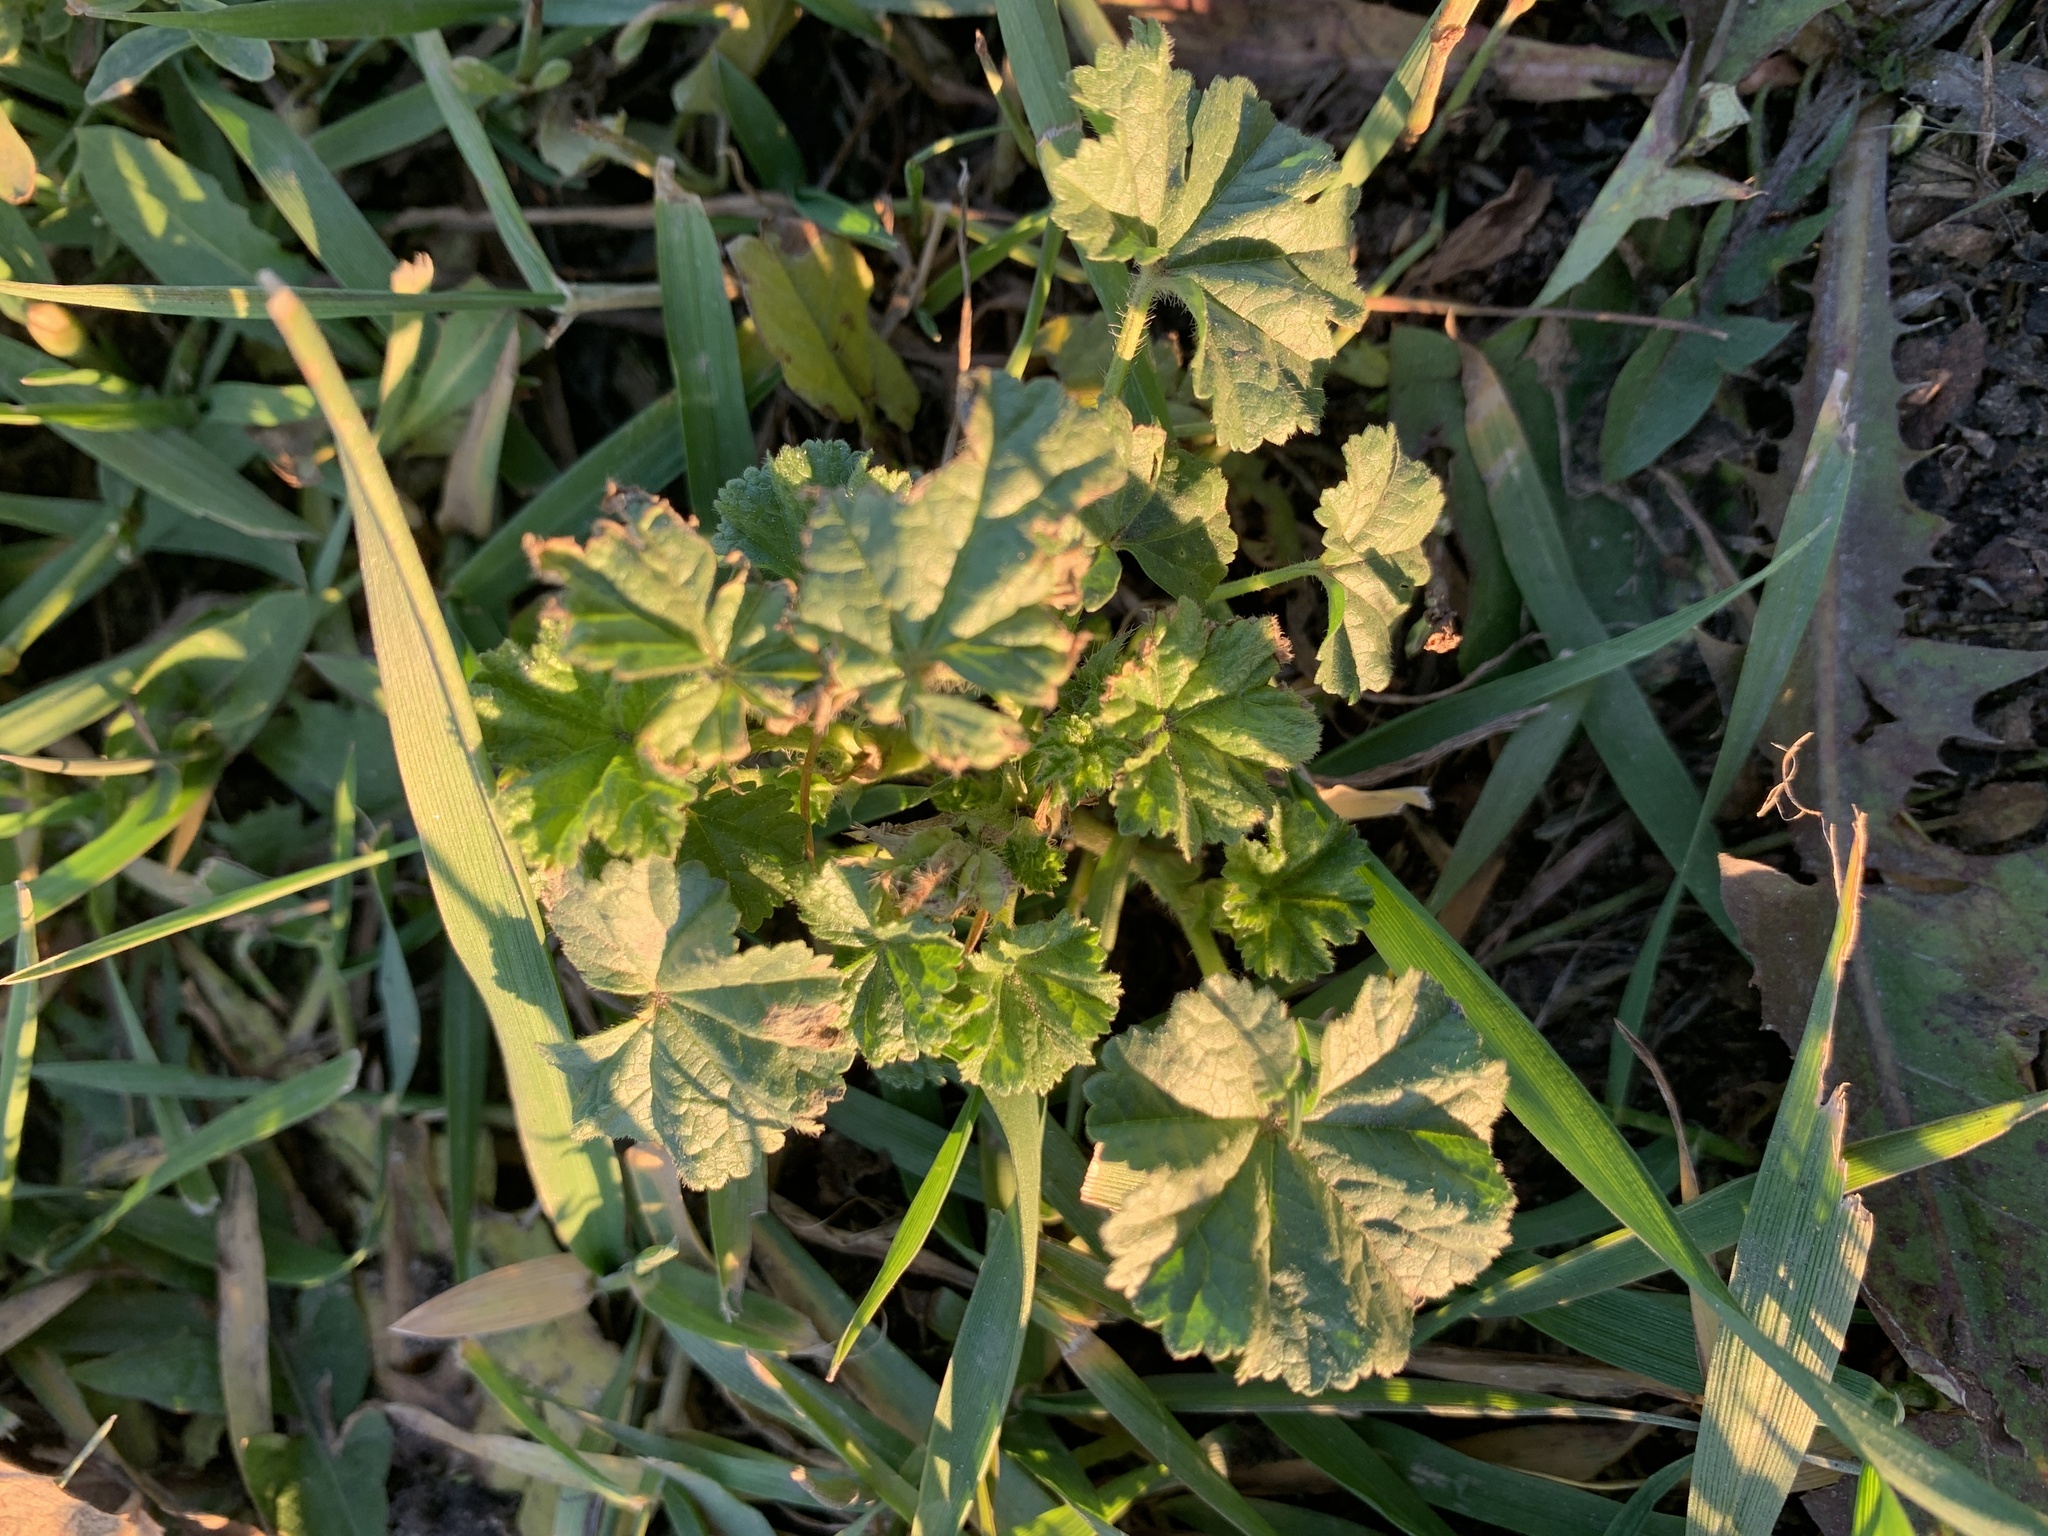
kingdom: Plantae
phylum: Tracheophyta
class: Magnoliopsida
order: Malvales
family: Malvaceae
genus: Malva
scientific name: Malva pusilla
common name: Small mallow
